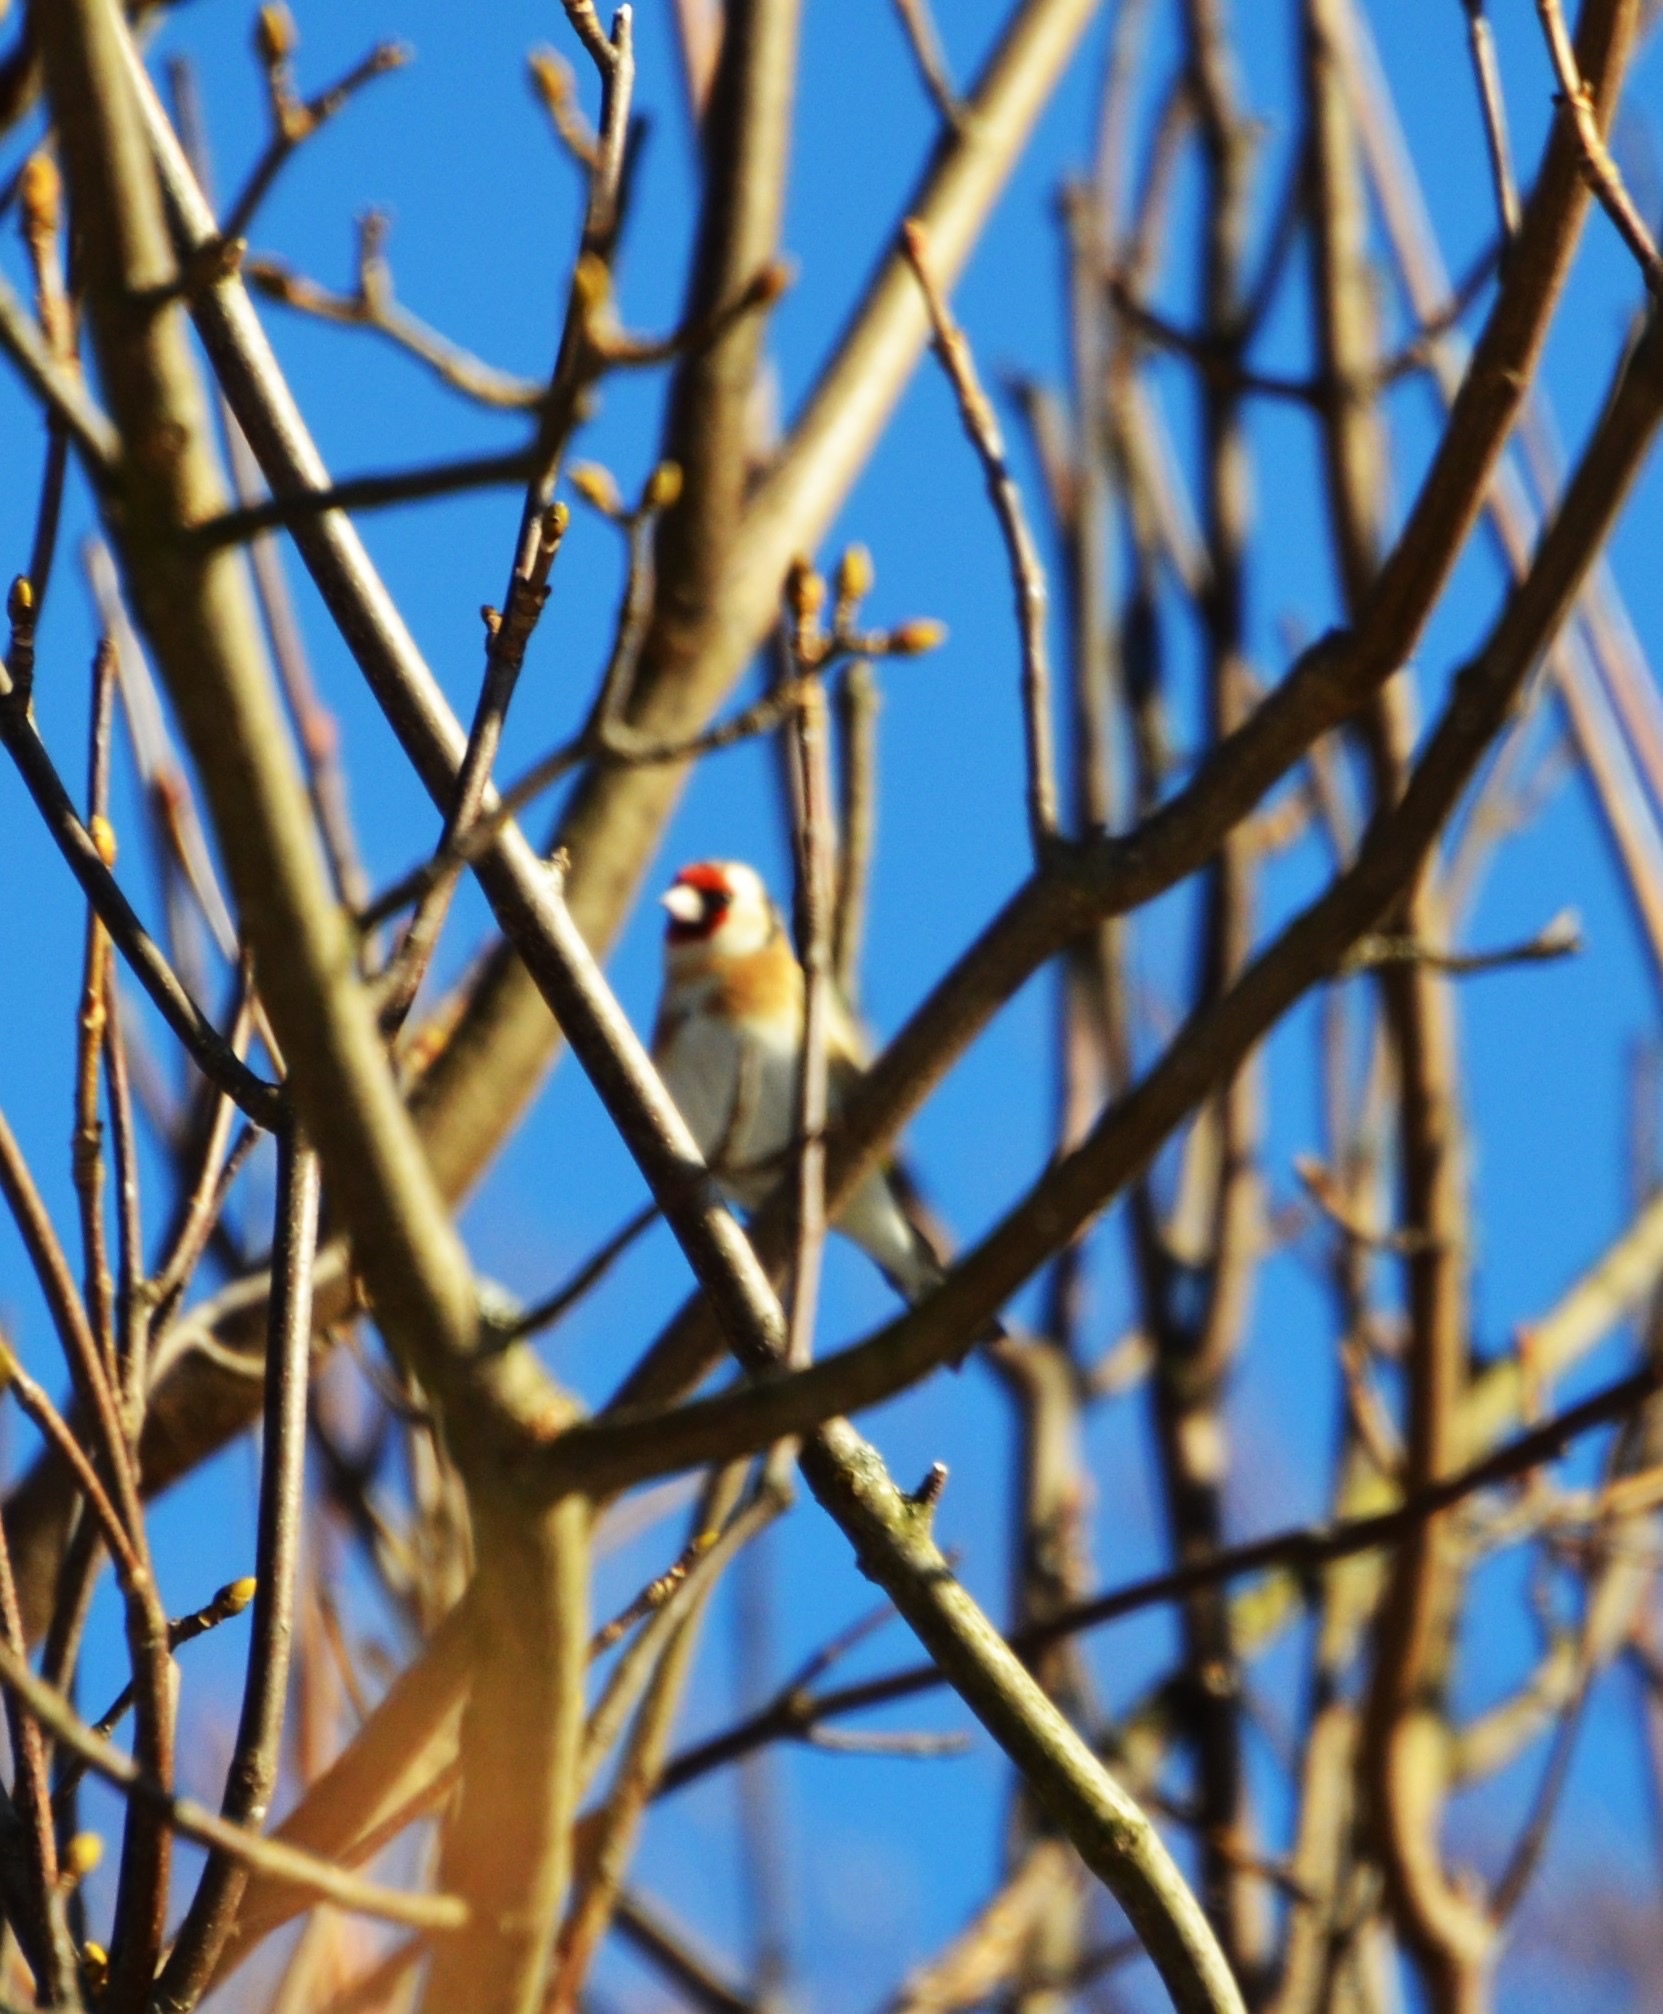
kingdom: Animalia
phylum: Chordata
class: Aves
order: Passeriformes
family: Fringillidae
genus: Carduelis
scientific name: Carduelis carduelis
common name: European goldfinch
